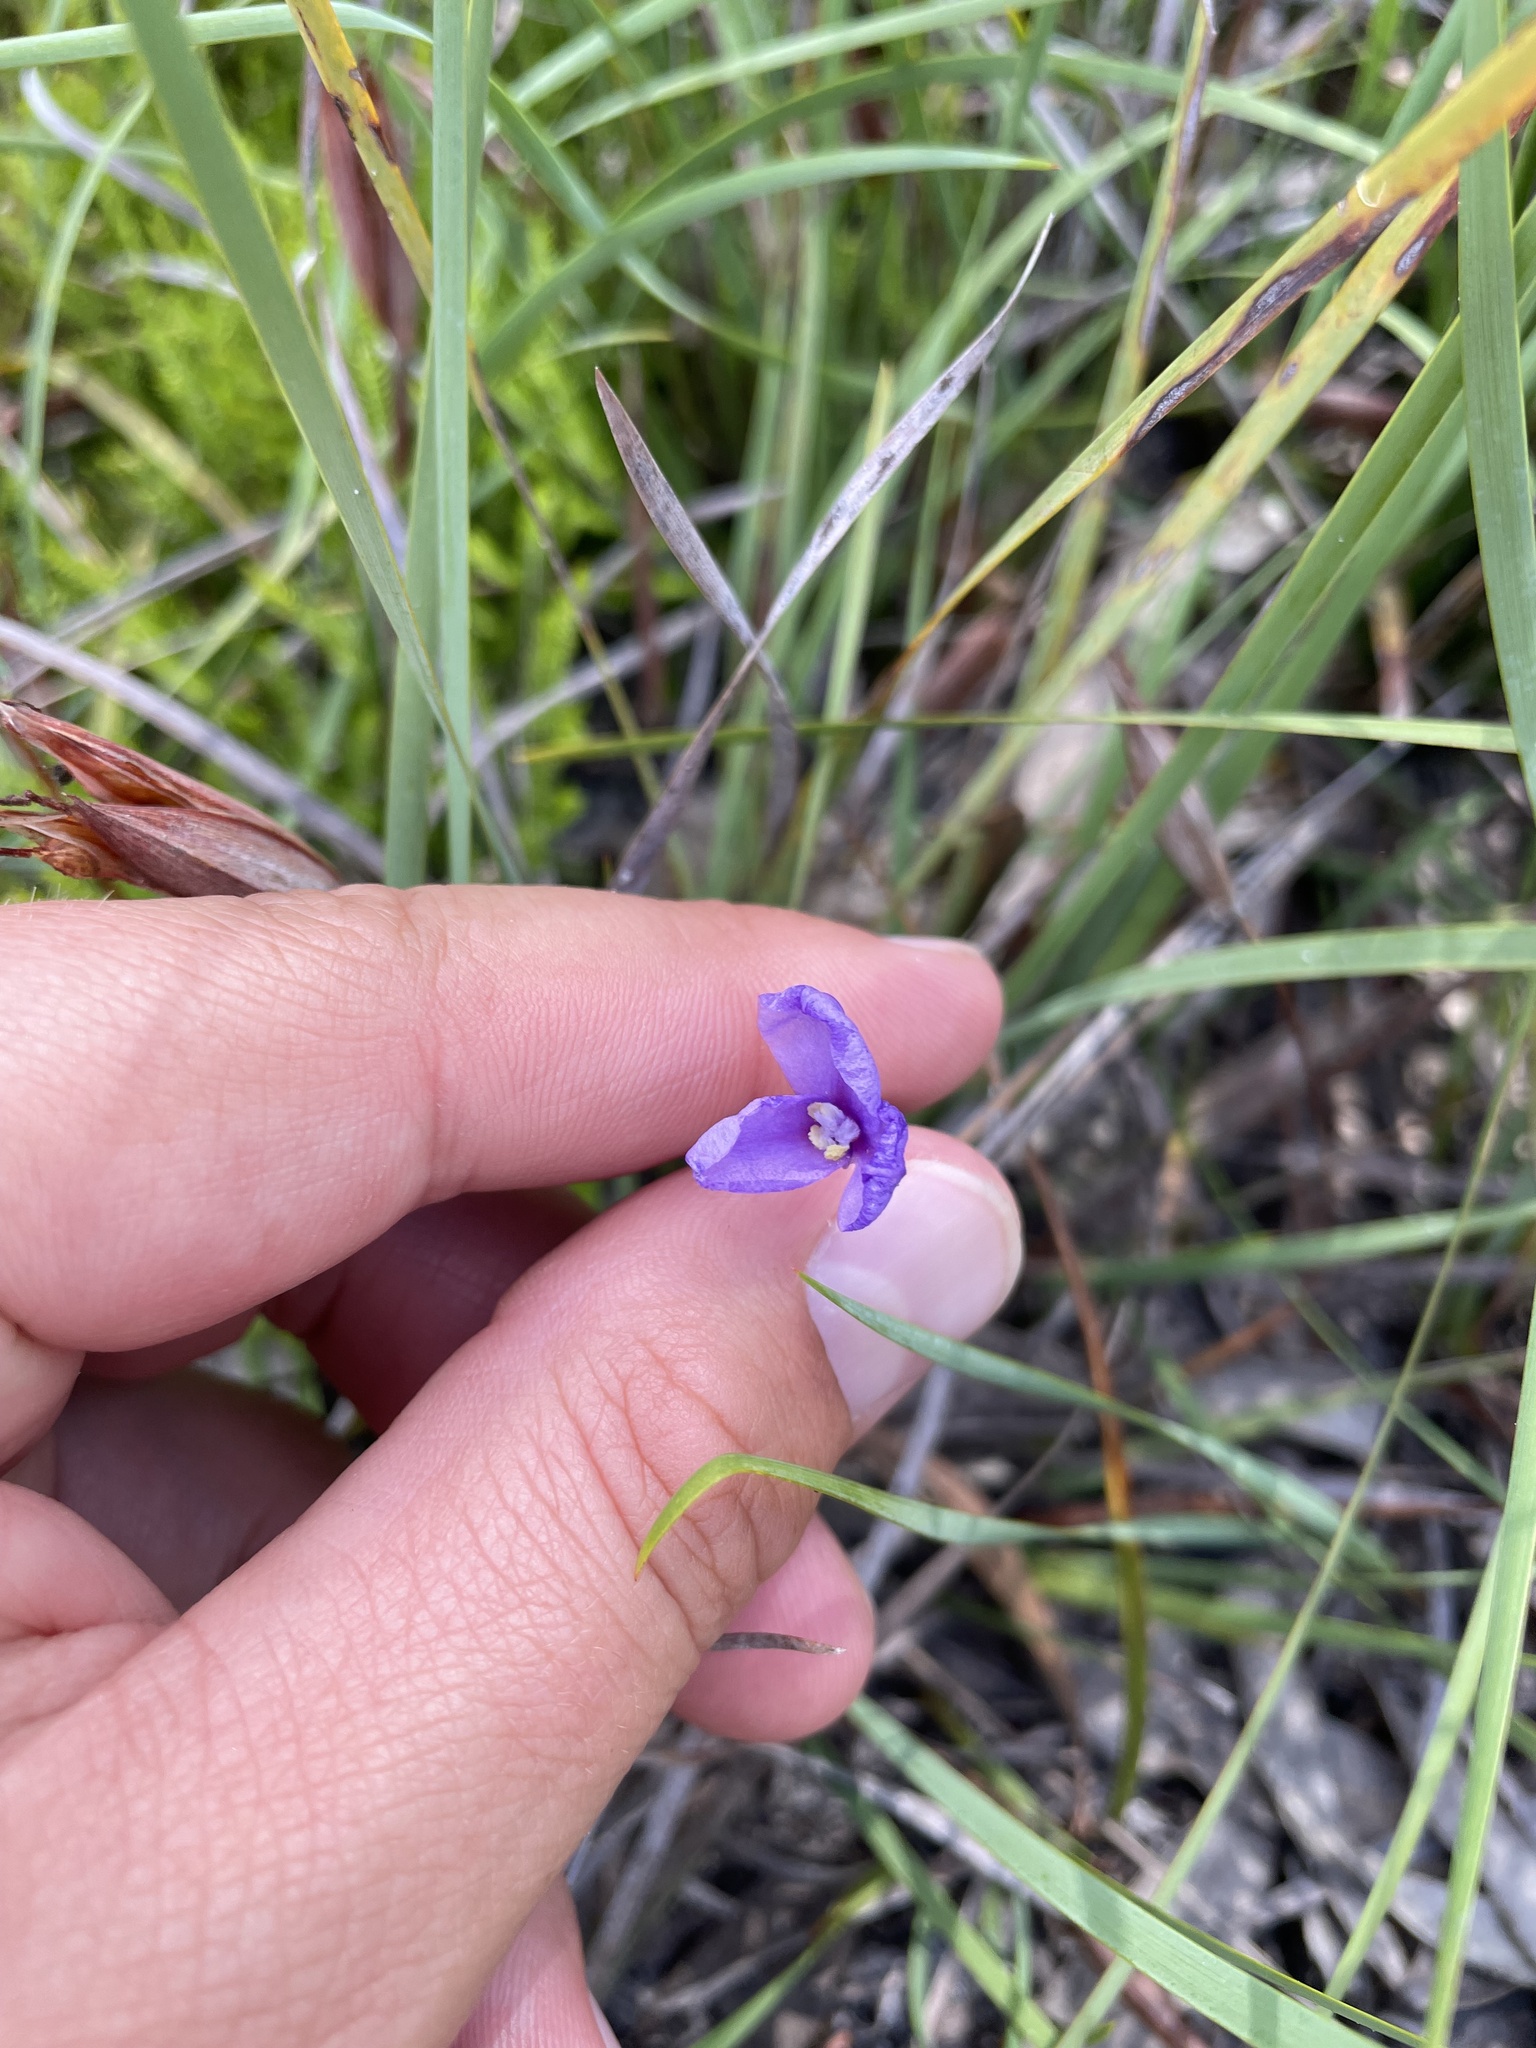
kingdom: Plantae
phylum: Tracheophyta
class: Liliopsida
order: Asparagales
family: Iridaceae
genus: Patersonia
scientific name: Patersonia fragilis
